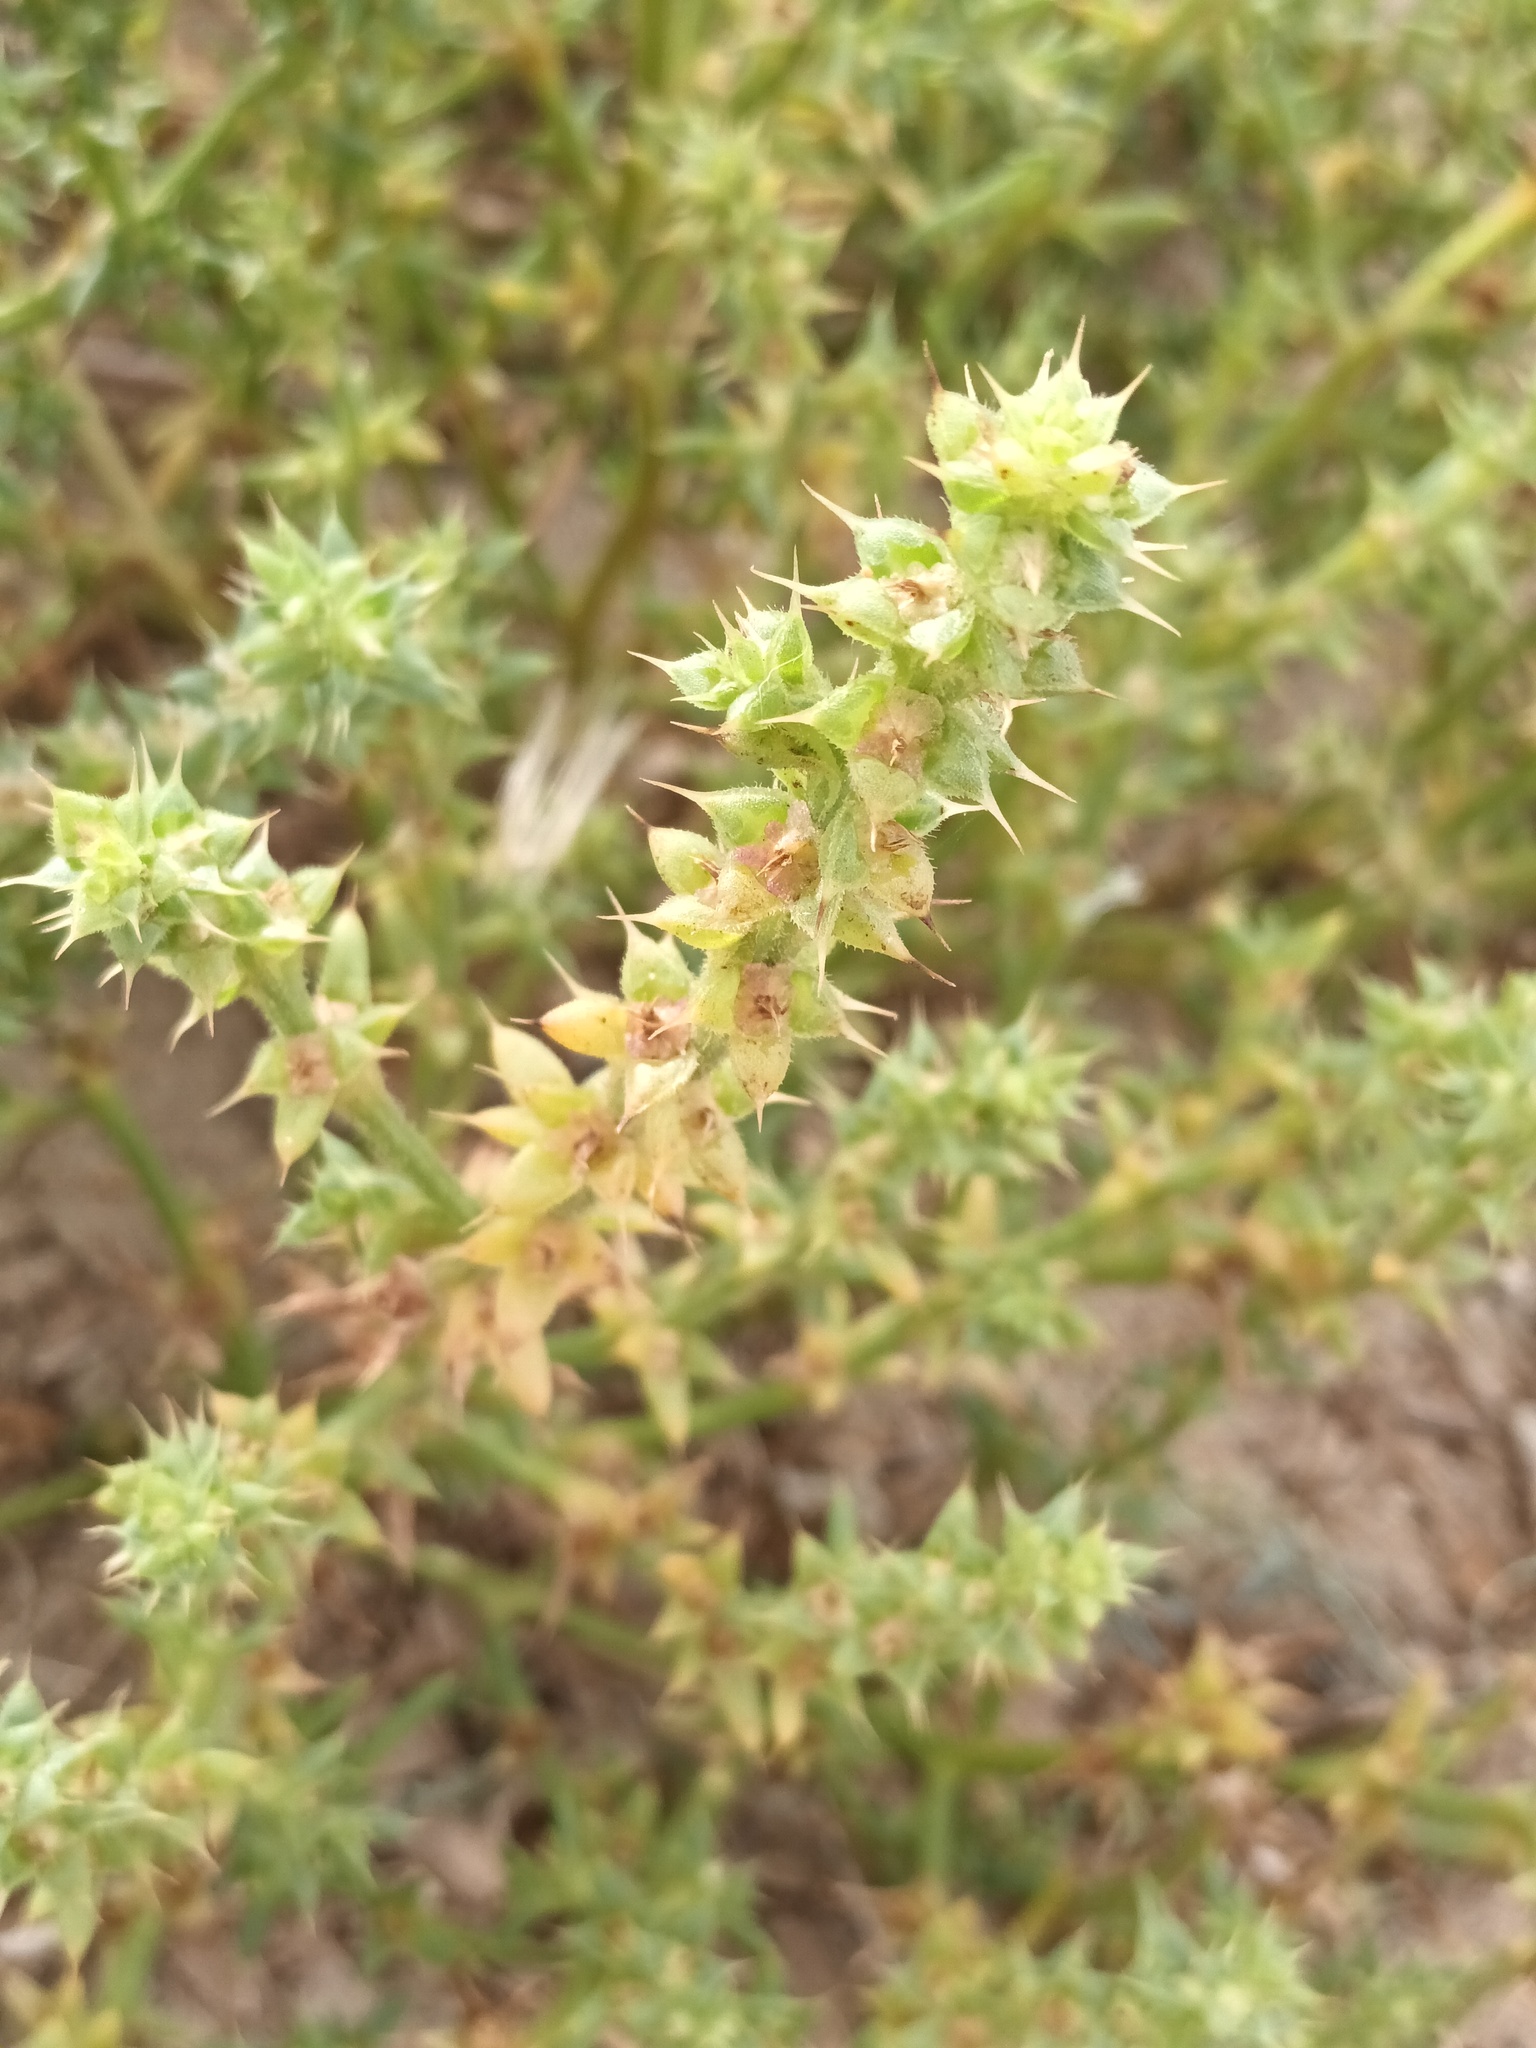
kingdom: Plantae
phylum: Tracheophyta
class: Magnoliopsida
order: Caryophyllales
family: Amaranthaceae
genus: Salsola
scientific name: Salsola kali
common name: Saltwort
